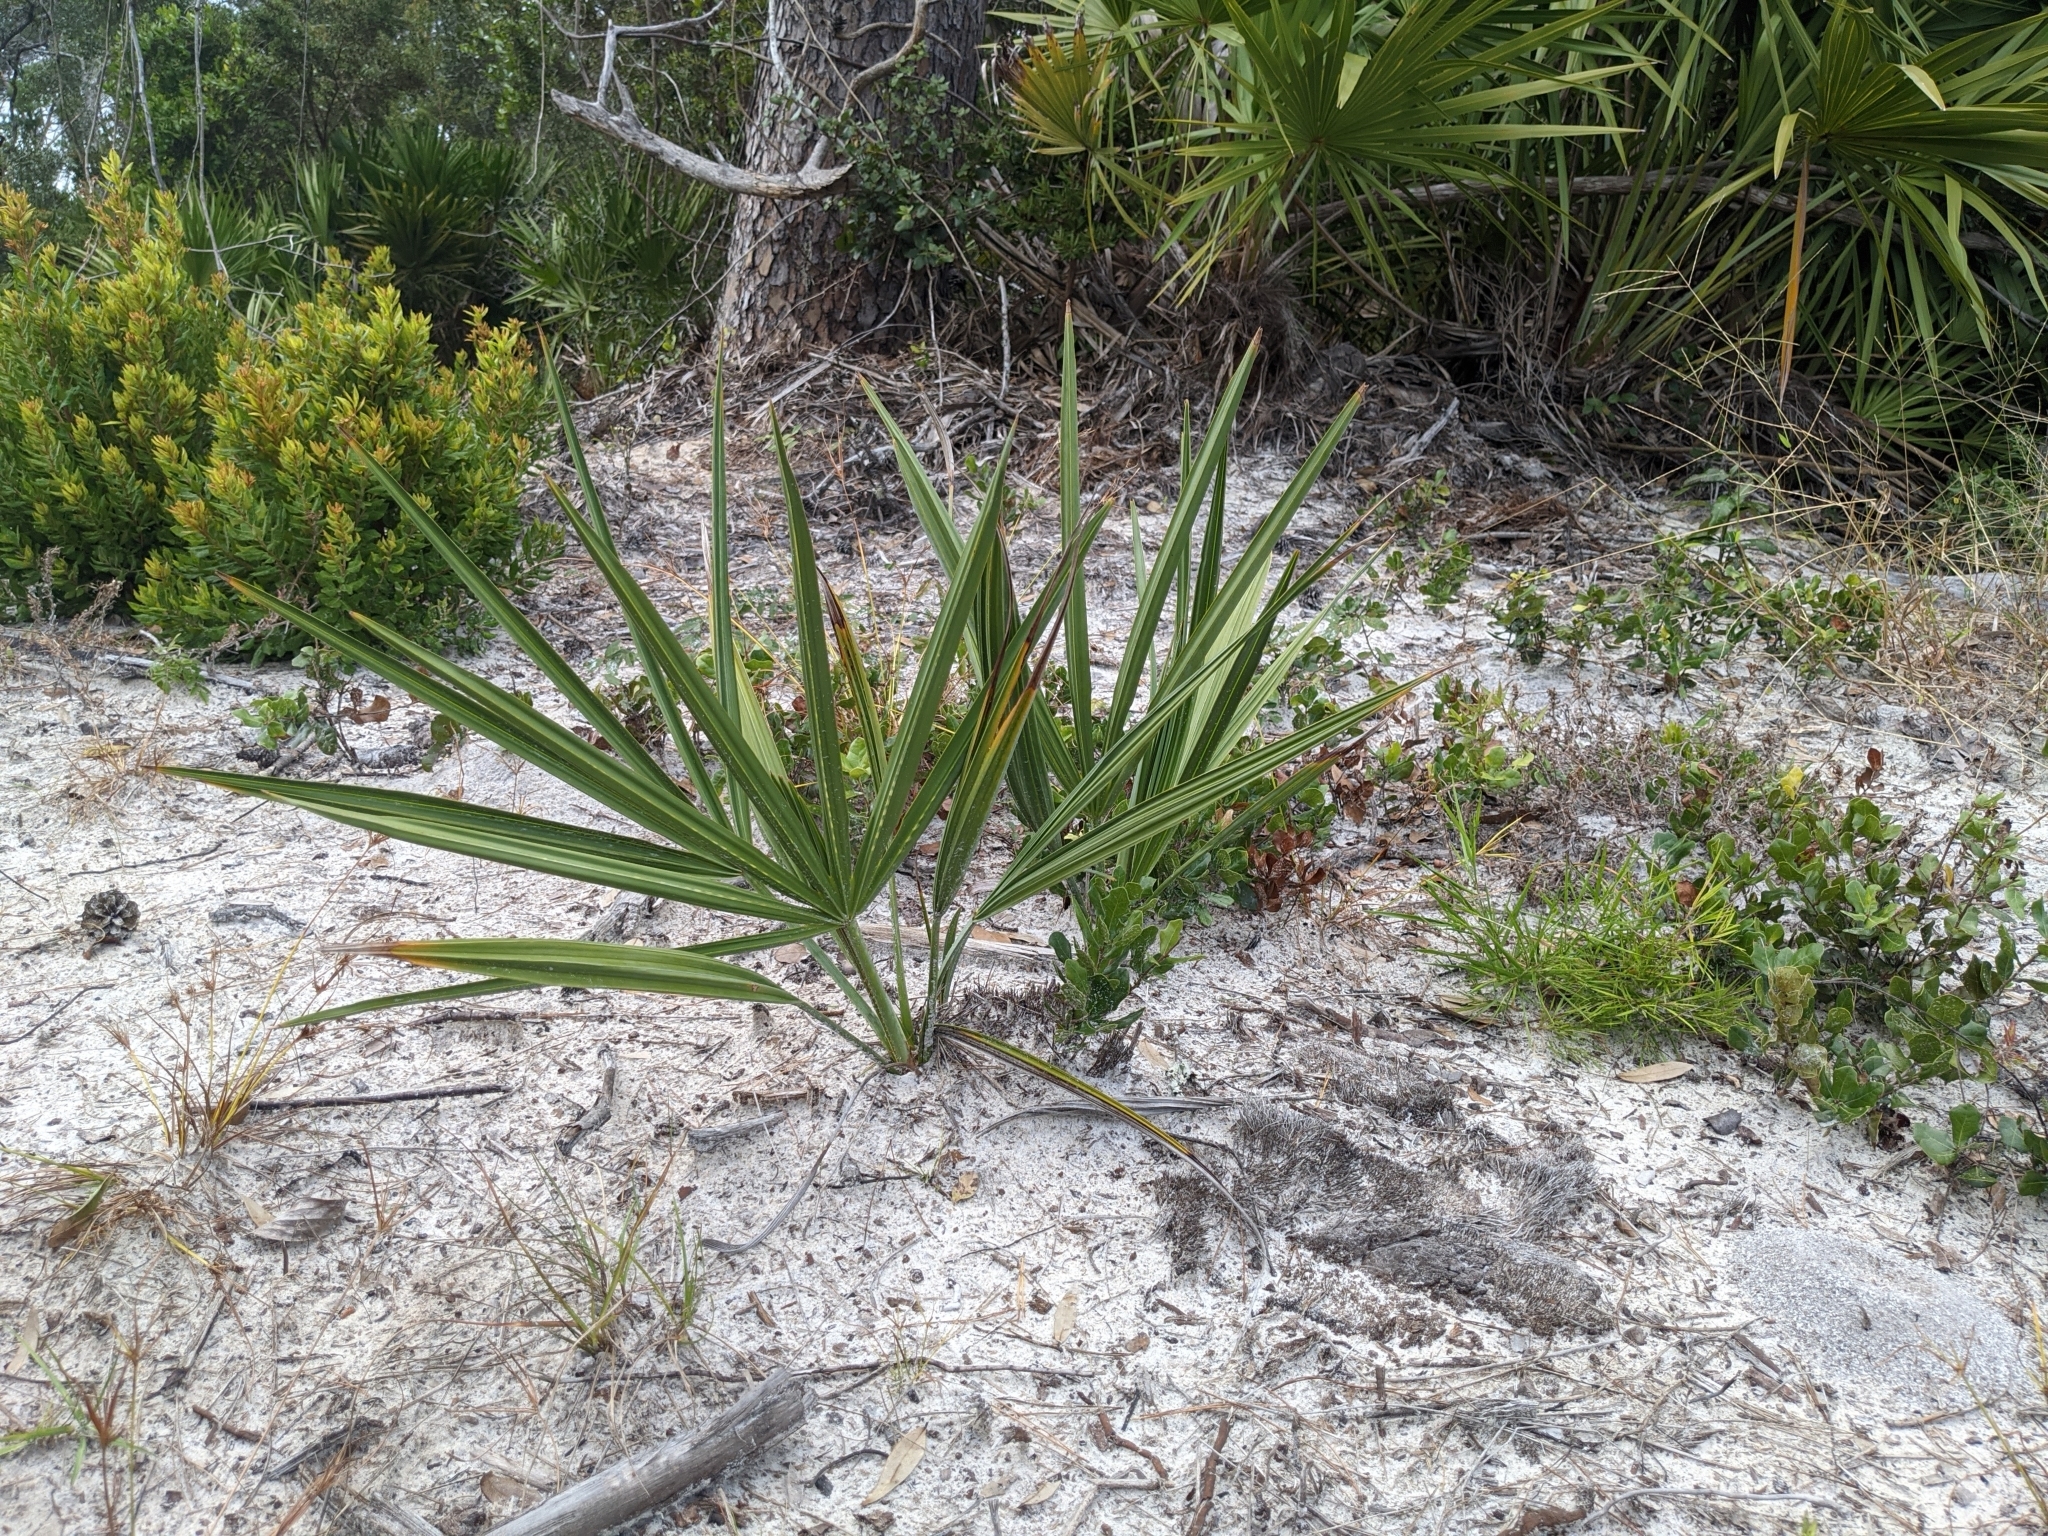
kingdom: Plantae
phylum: Tracheophyta
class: Liliopsida
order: Arecales
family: Arecaceae
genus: Serenoa
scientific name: Serenoa repens
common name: Saw-palmetto
